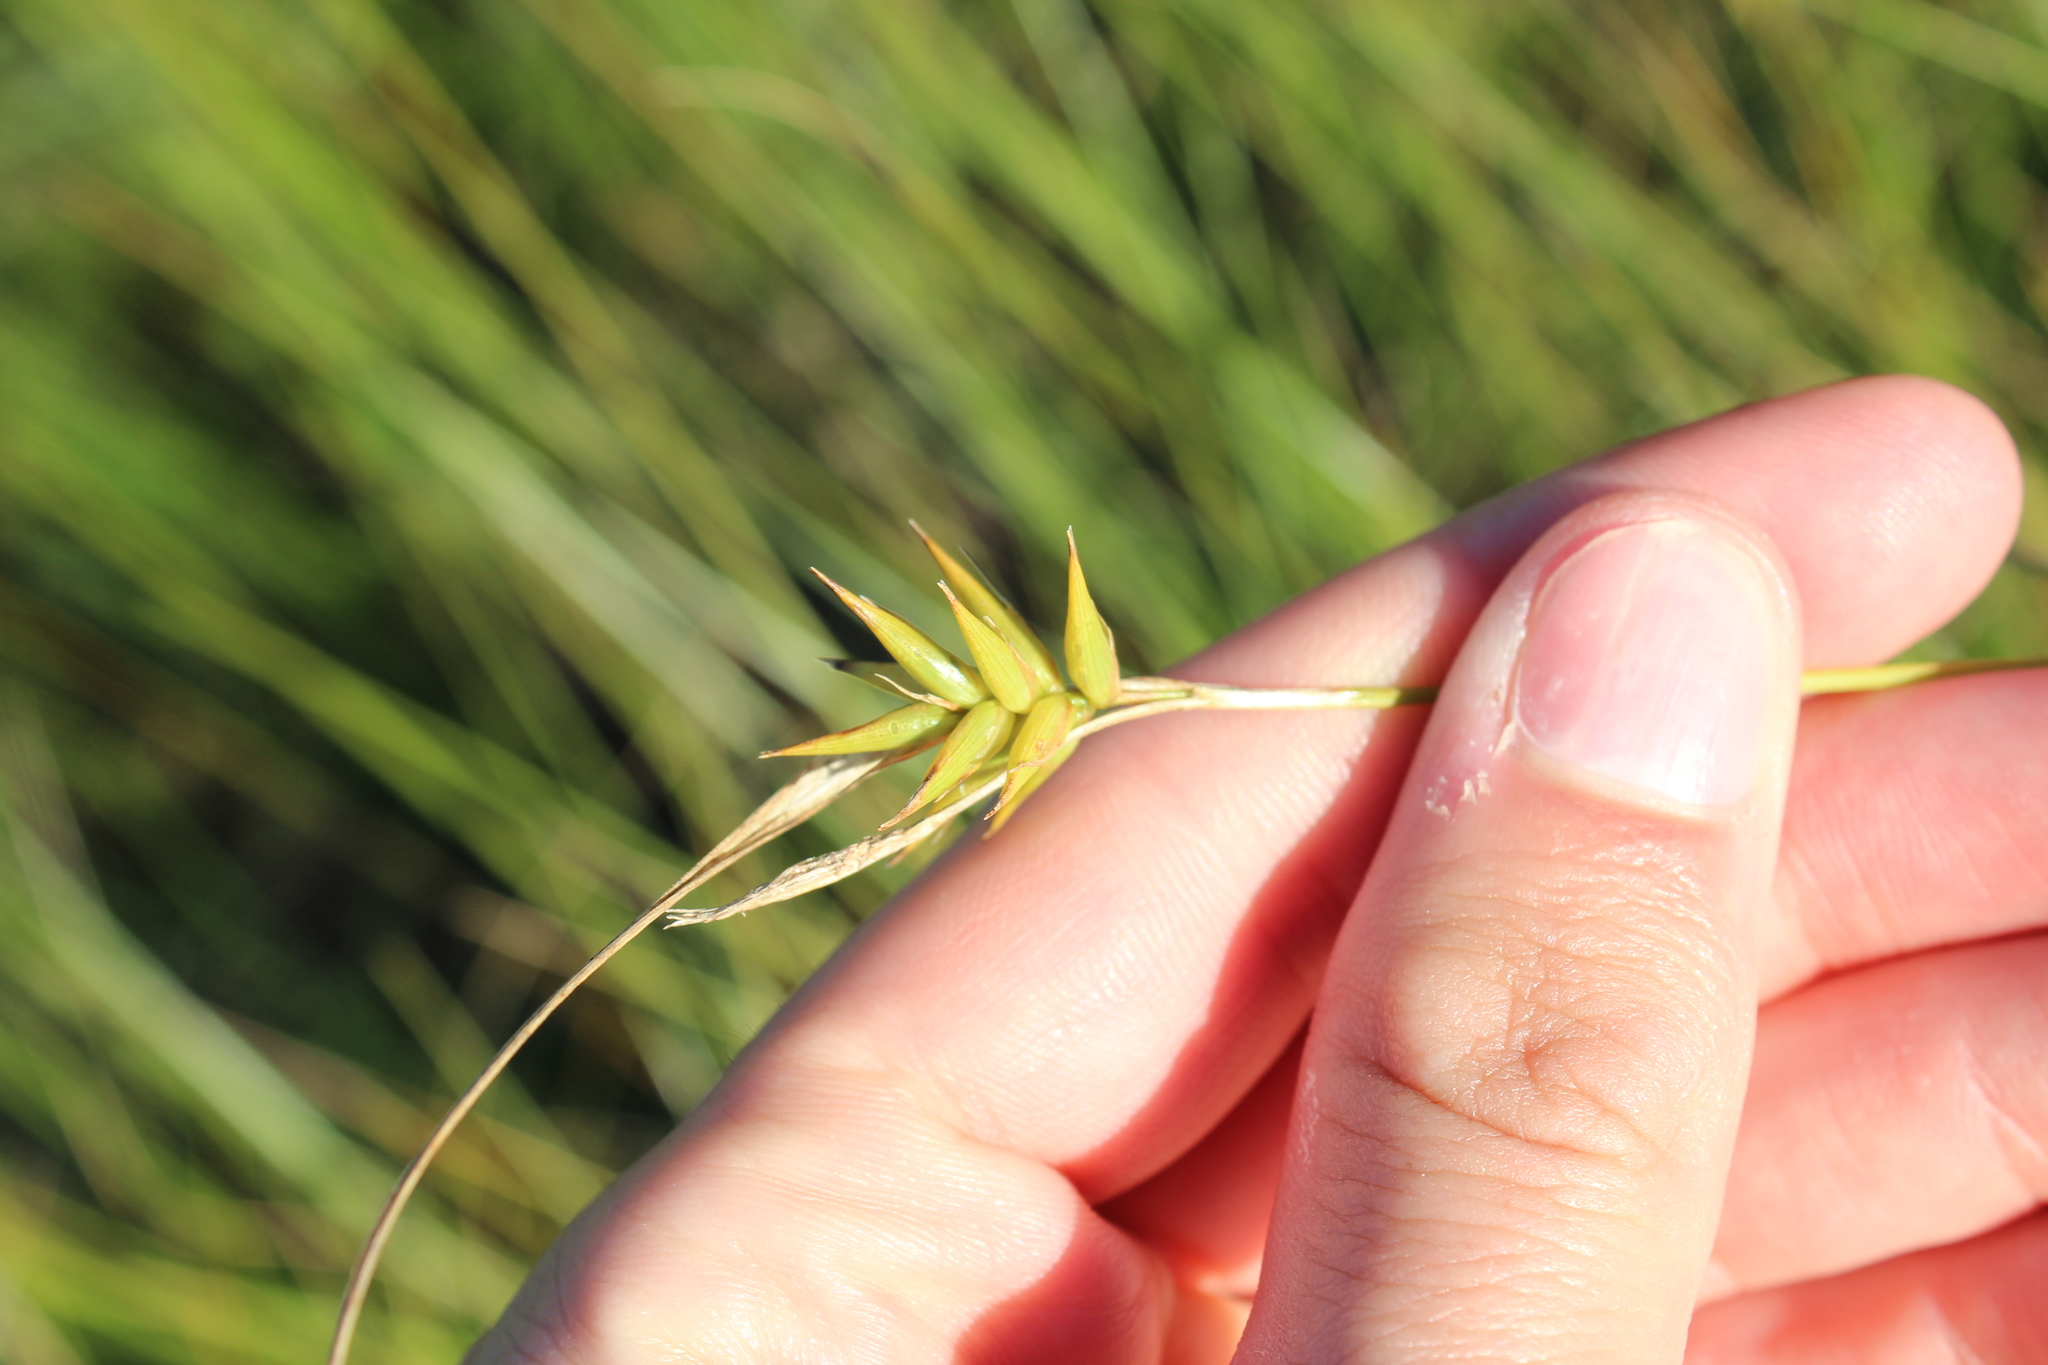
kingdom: Plantae
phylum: Tracheophyta
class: Liliopsida
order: Poales
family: Cyperaceae
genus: Carex
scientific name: Carex folliculata
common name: Northern long sedge
